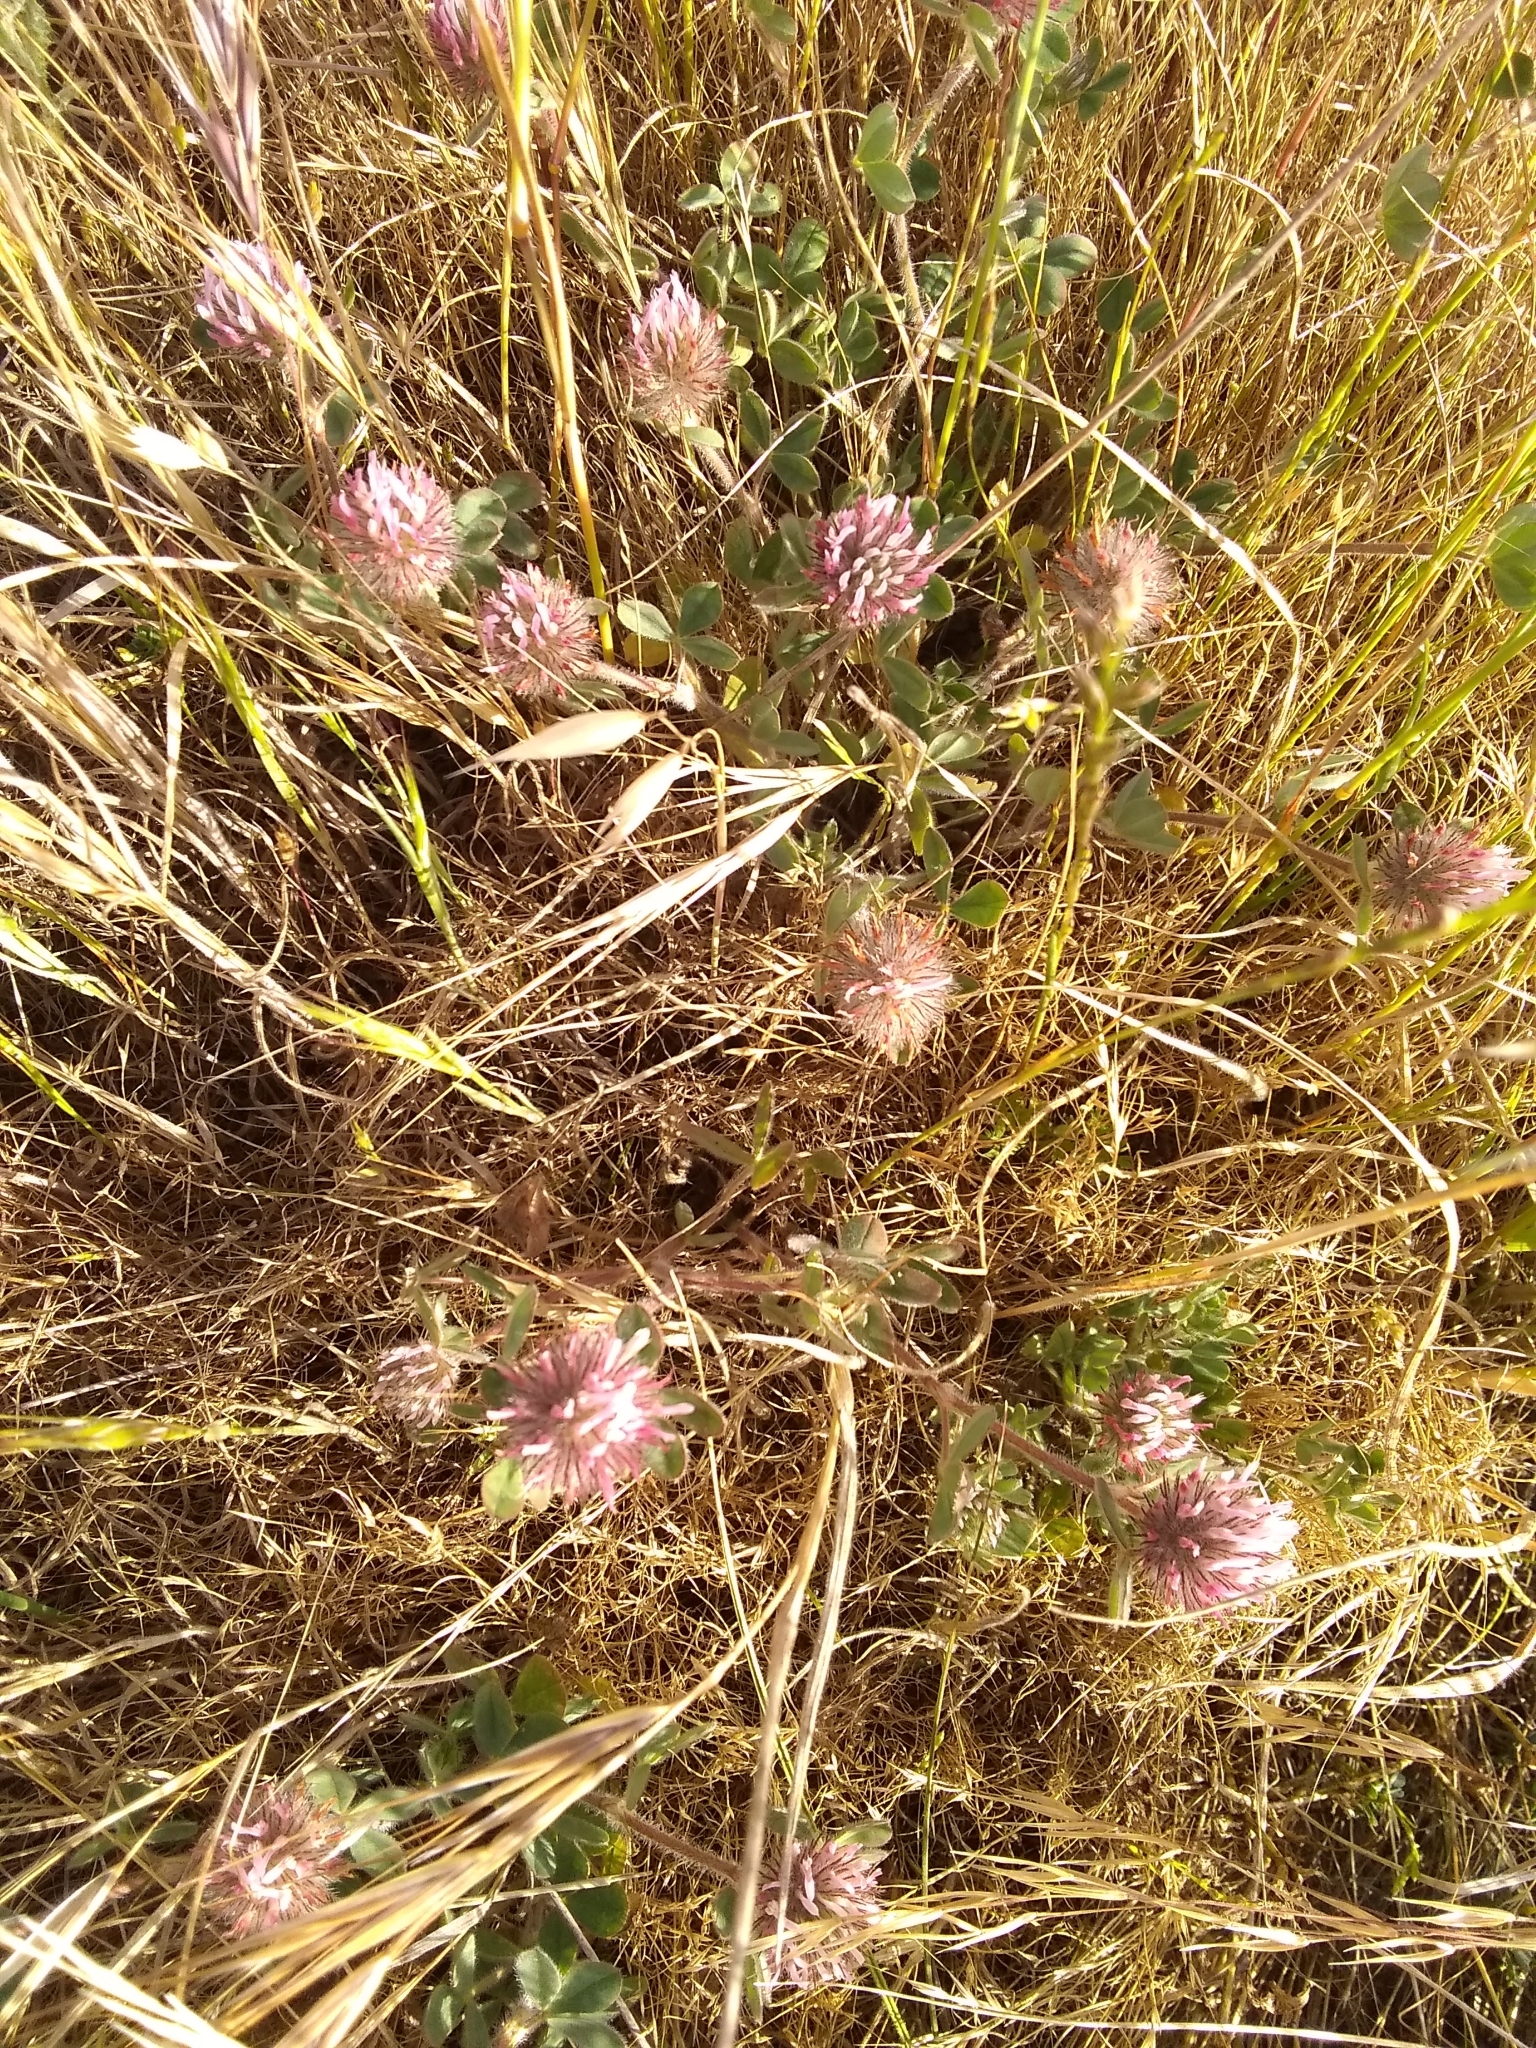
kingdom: Plantae
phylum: Tracheophyta
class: Magnoliopsida
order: Fabales
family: Fabaceae
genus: Trifolium
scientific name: Trifolium hirtum
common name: Rose clover
